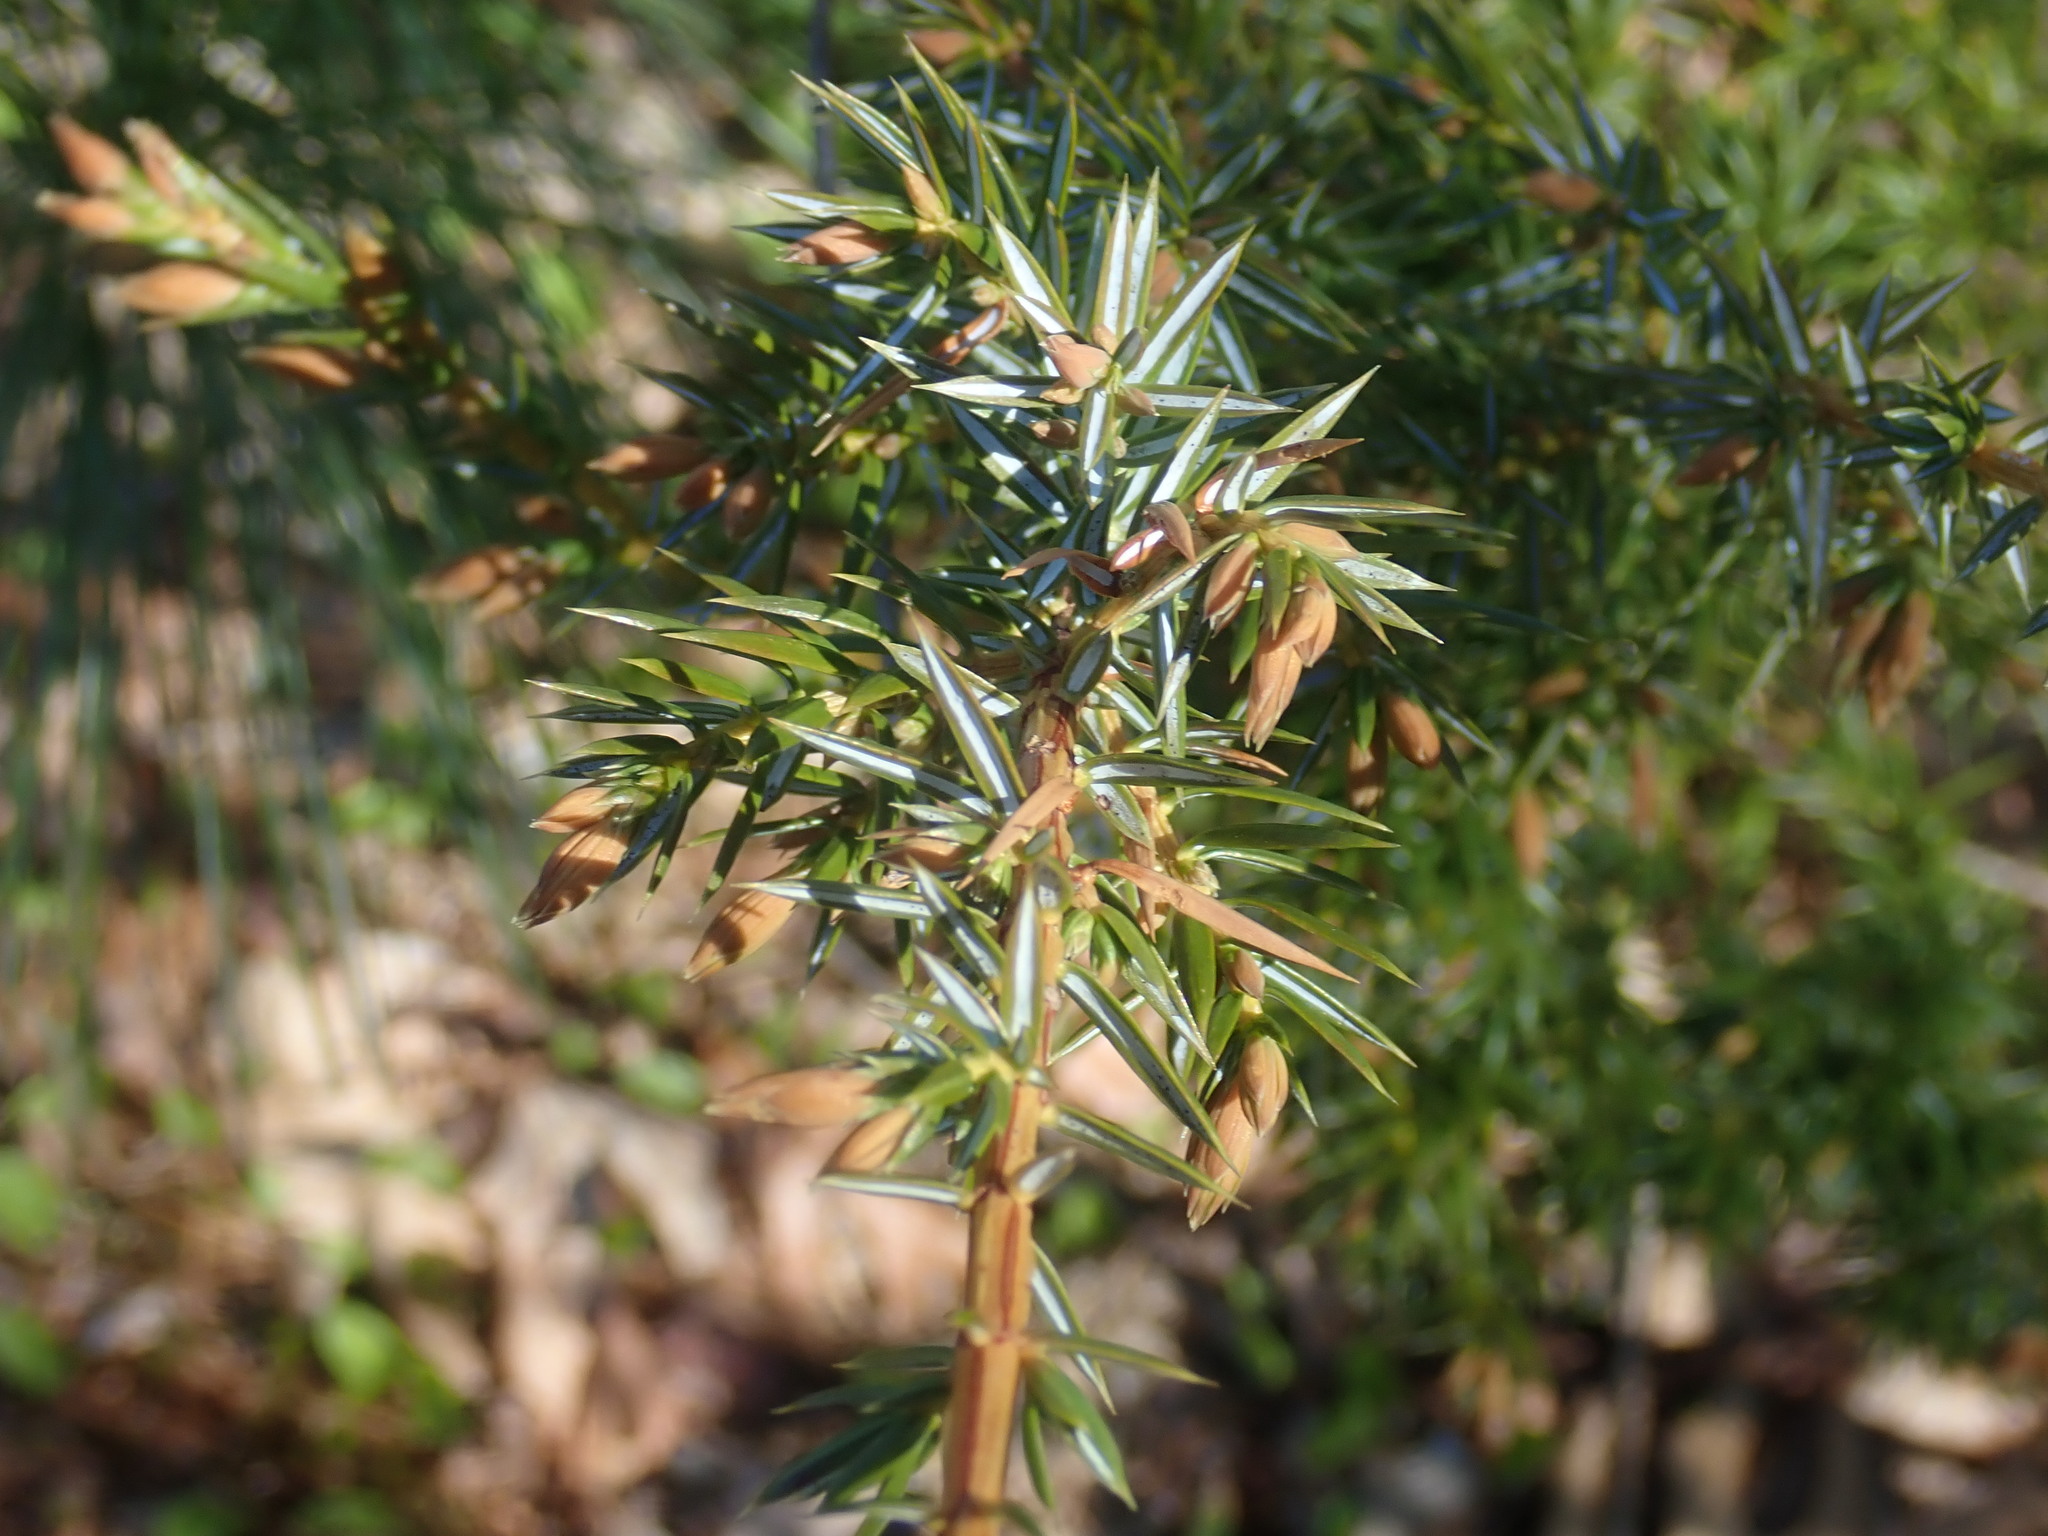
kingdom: Plantae
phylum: Tracheophyta
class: Pinopsida
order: Pinales
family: Cupressaceae
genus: Juniperus
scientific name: Juniperus communis
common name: Common juniper
